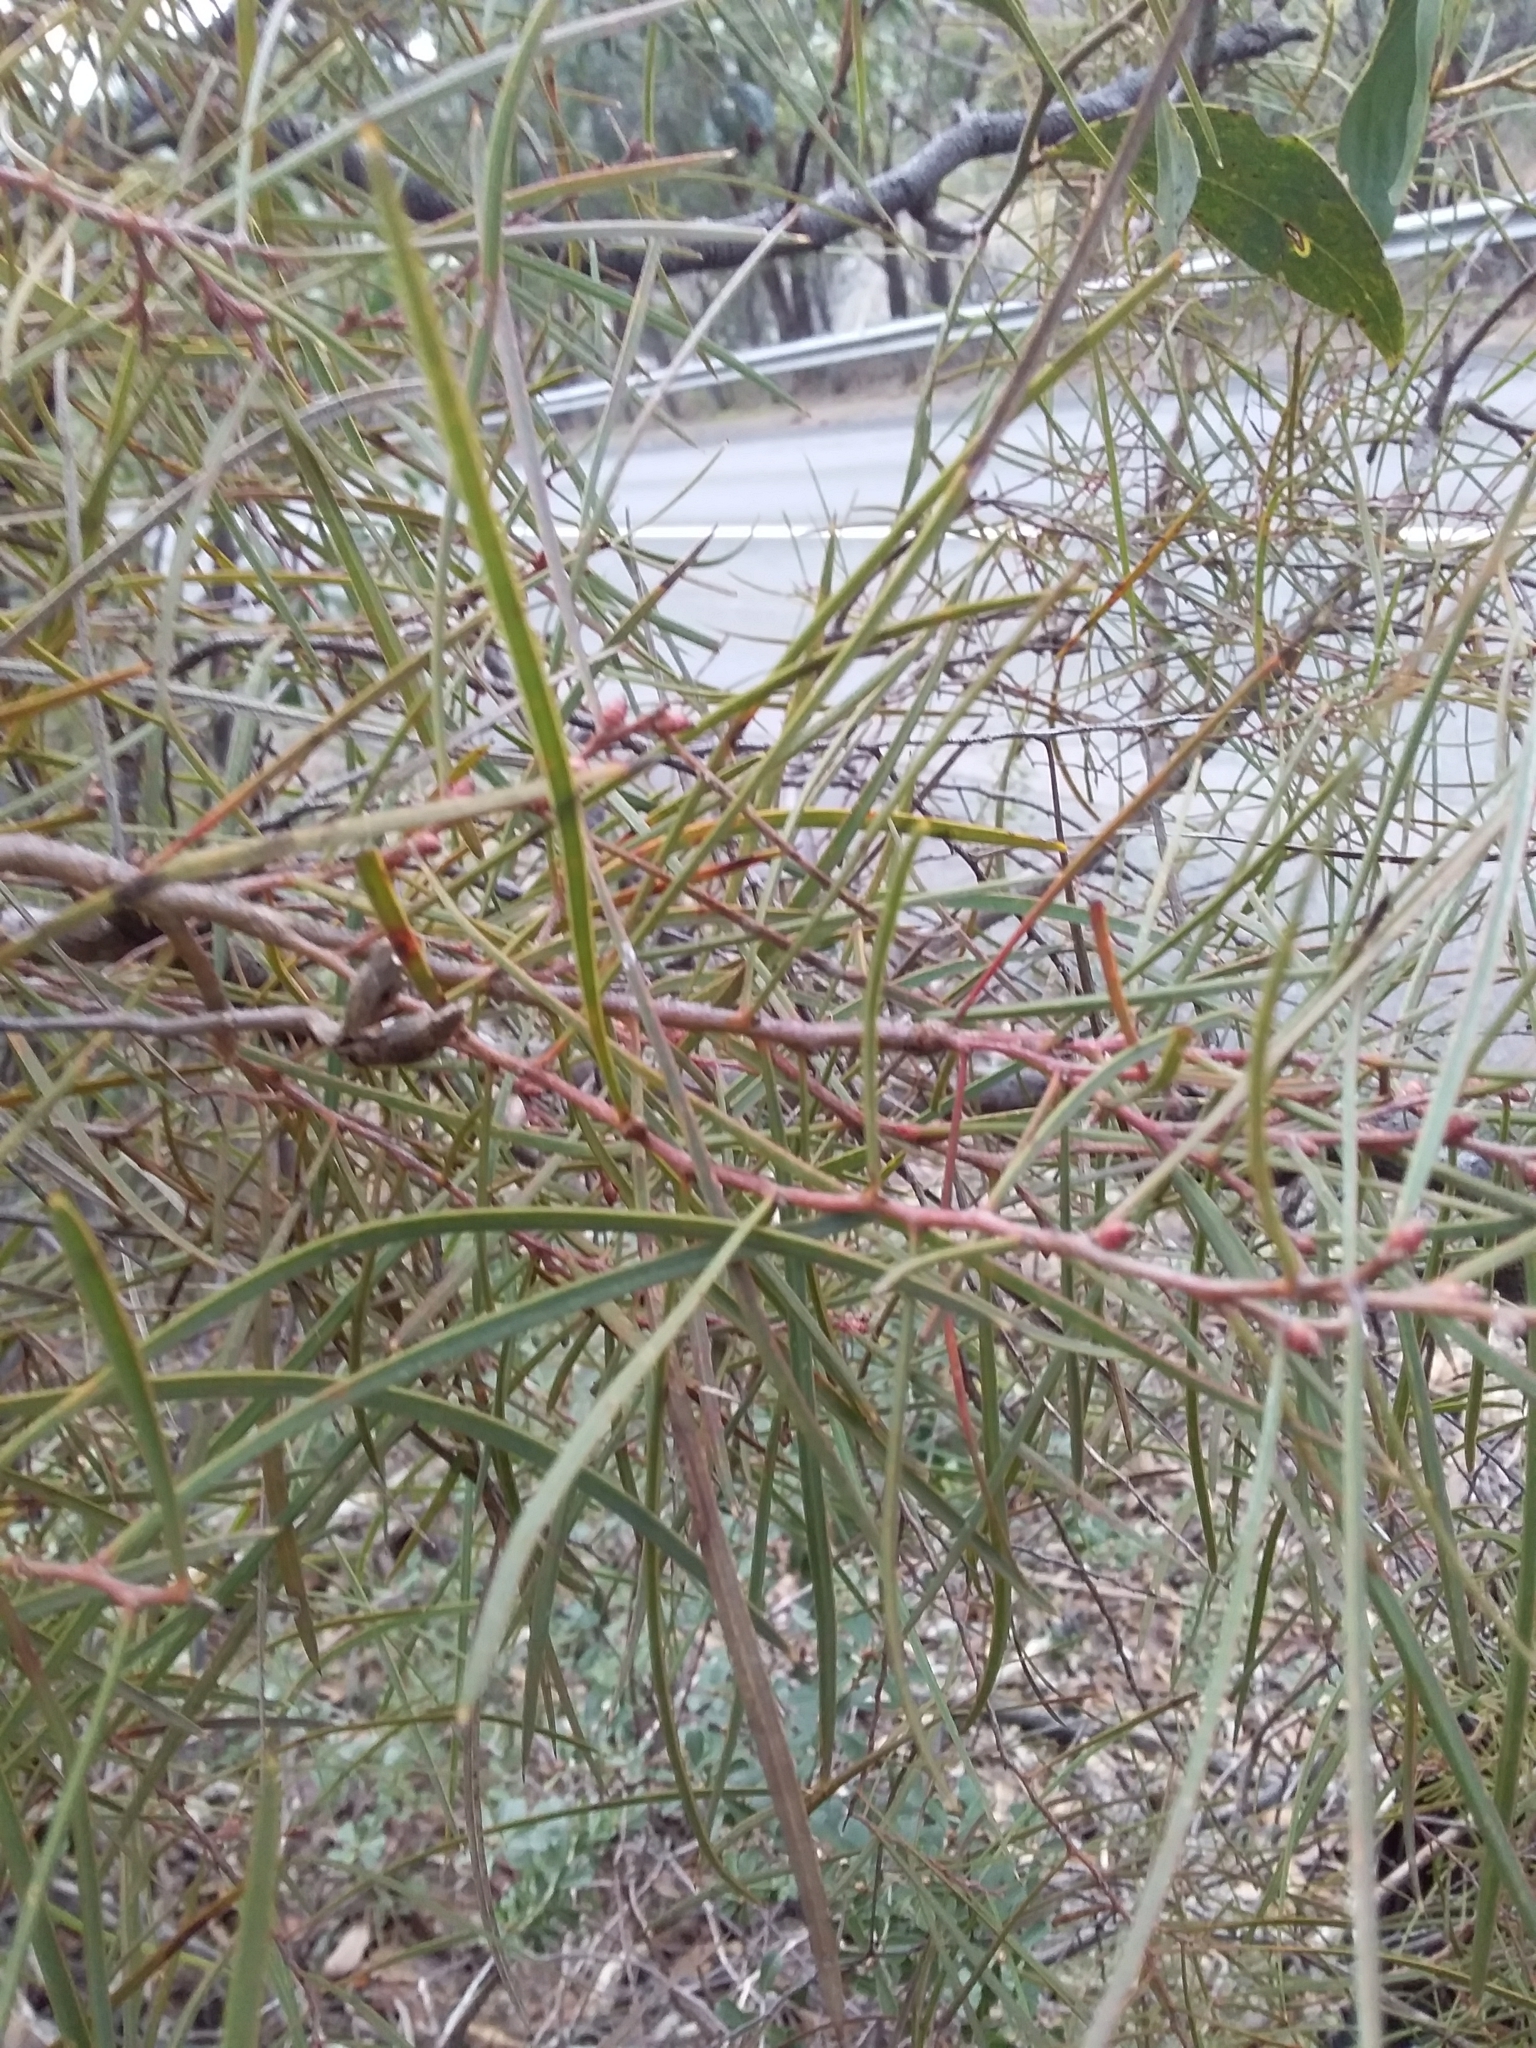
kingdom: Plantae
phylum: Tracheophyta
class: Magnoliopsida
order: Proteales
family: Proteaceae
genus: Hakea
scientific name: Hakea carinata
